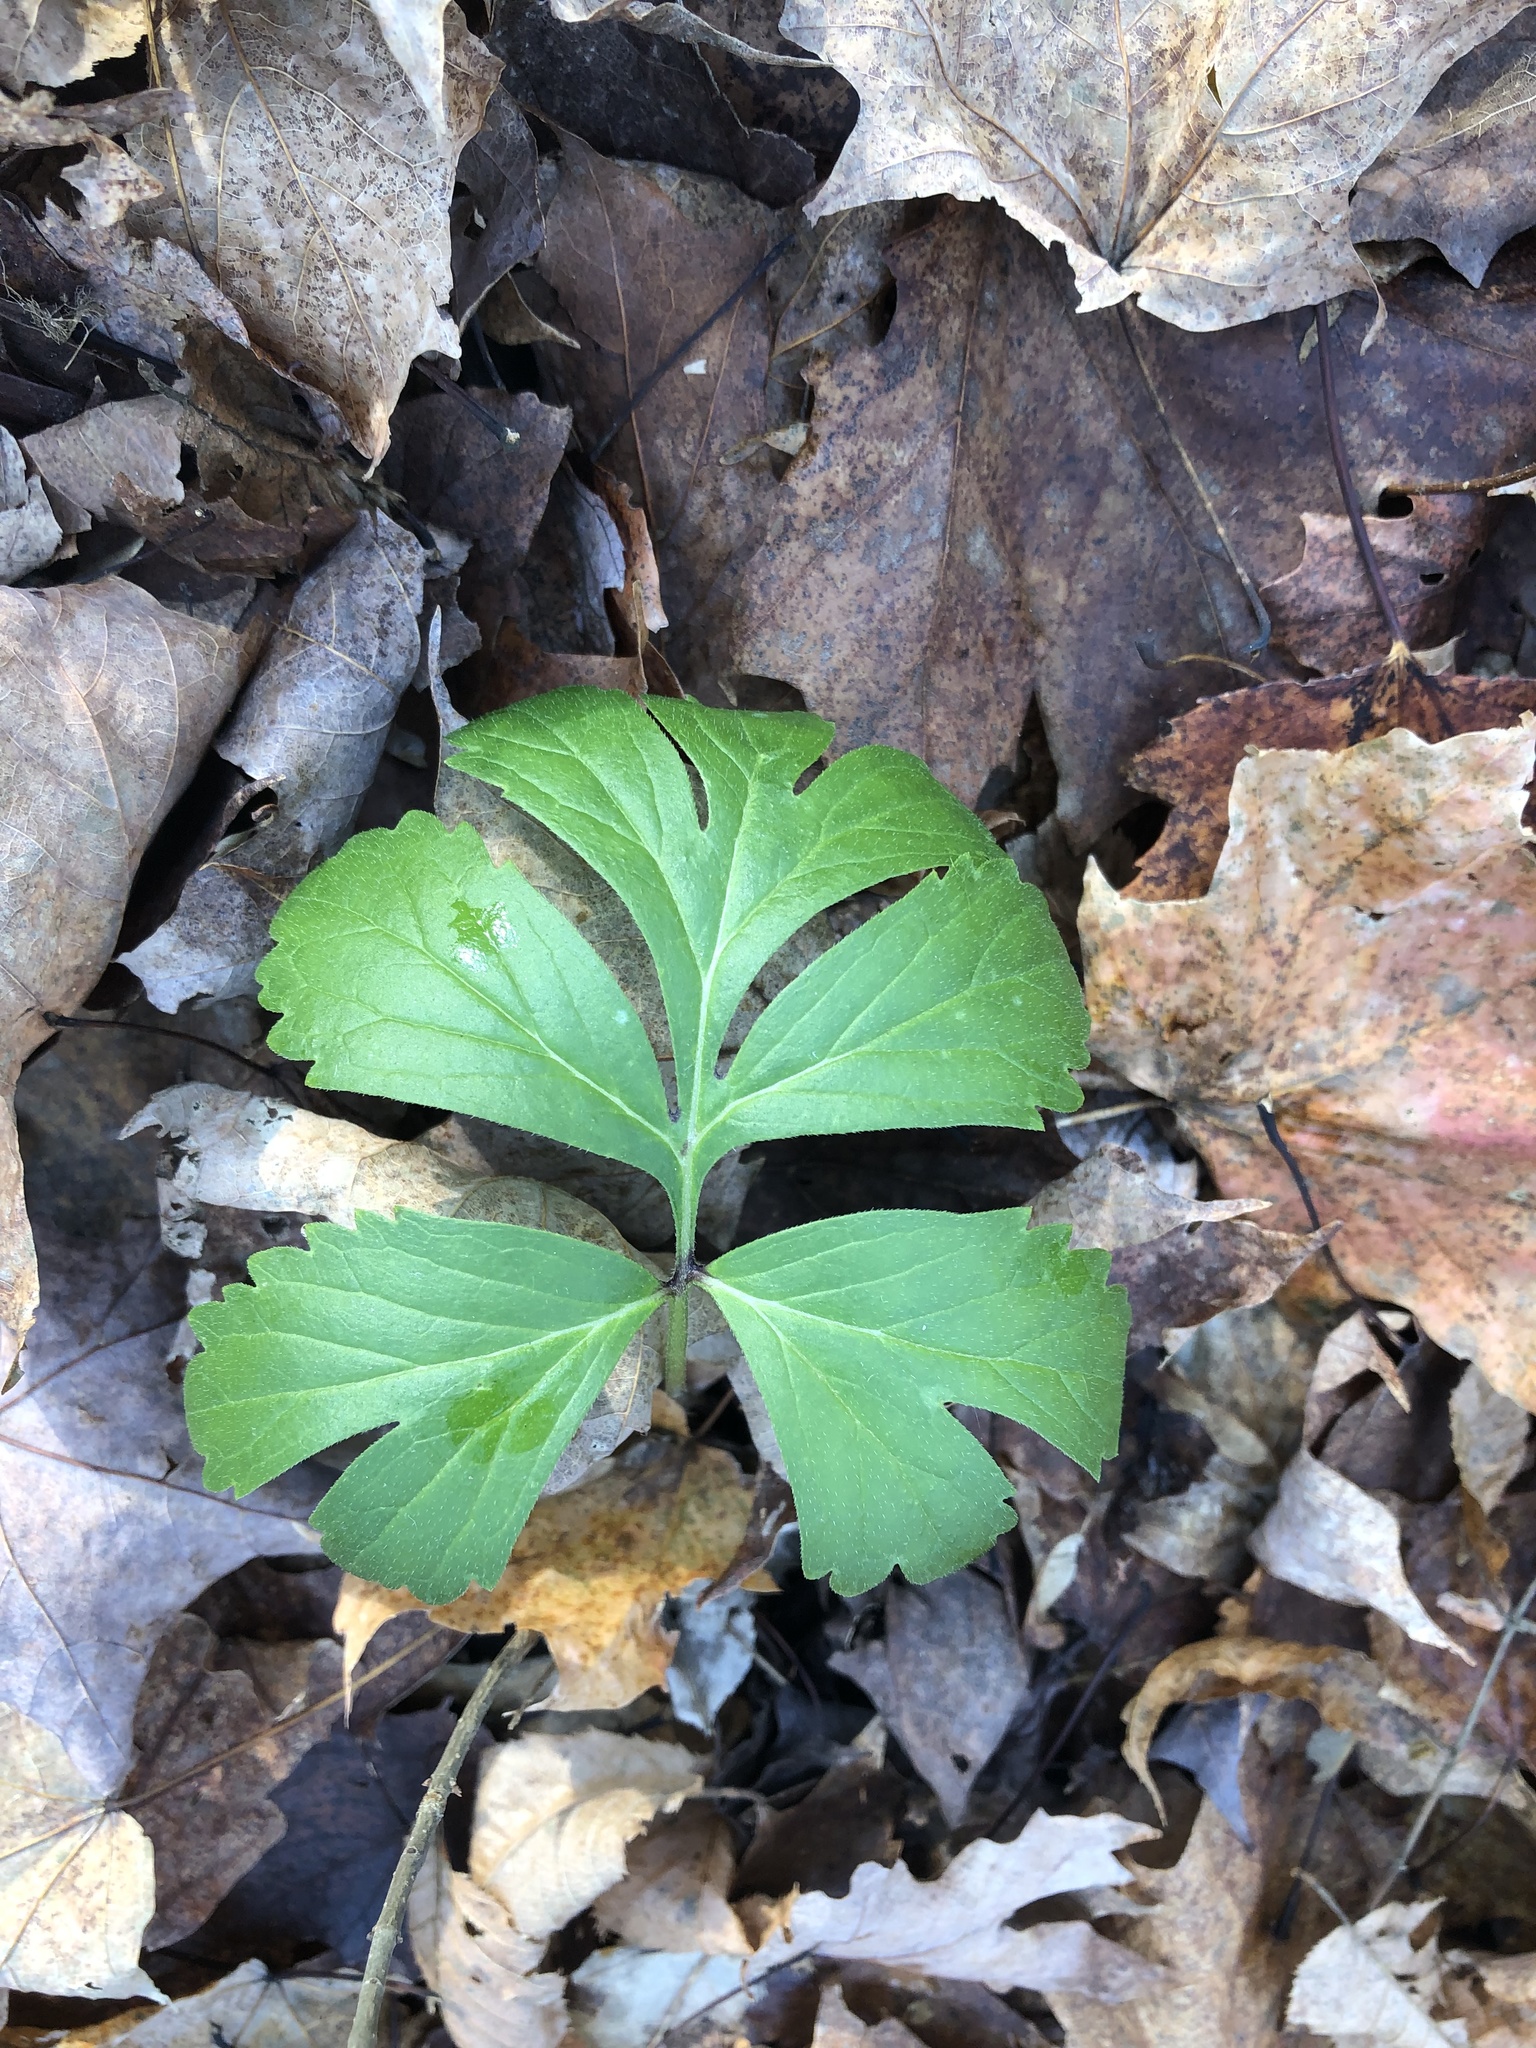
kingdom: Plantae
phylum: Tracheophyta
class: Magnoliopsida
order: Boraginales
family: Hydrophyllaceae
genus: Hydrophyllum
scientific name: Hydrophyllum virginianum
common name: Virginia waterleaf
